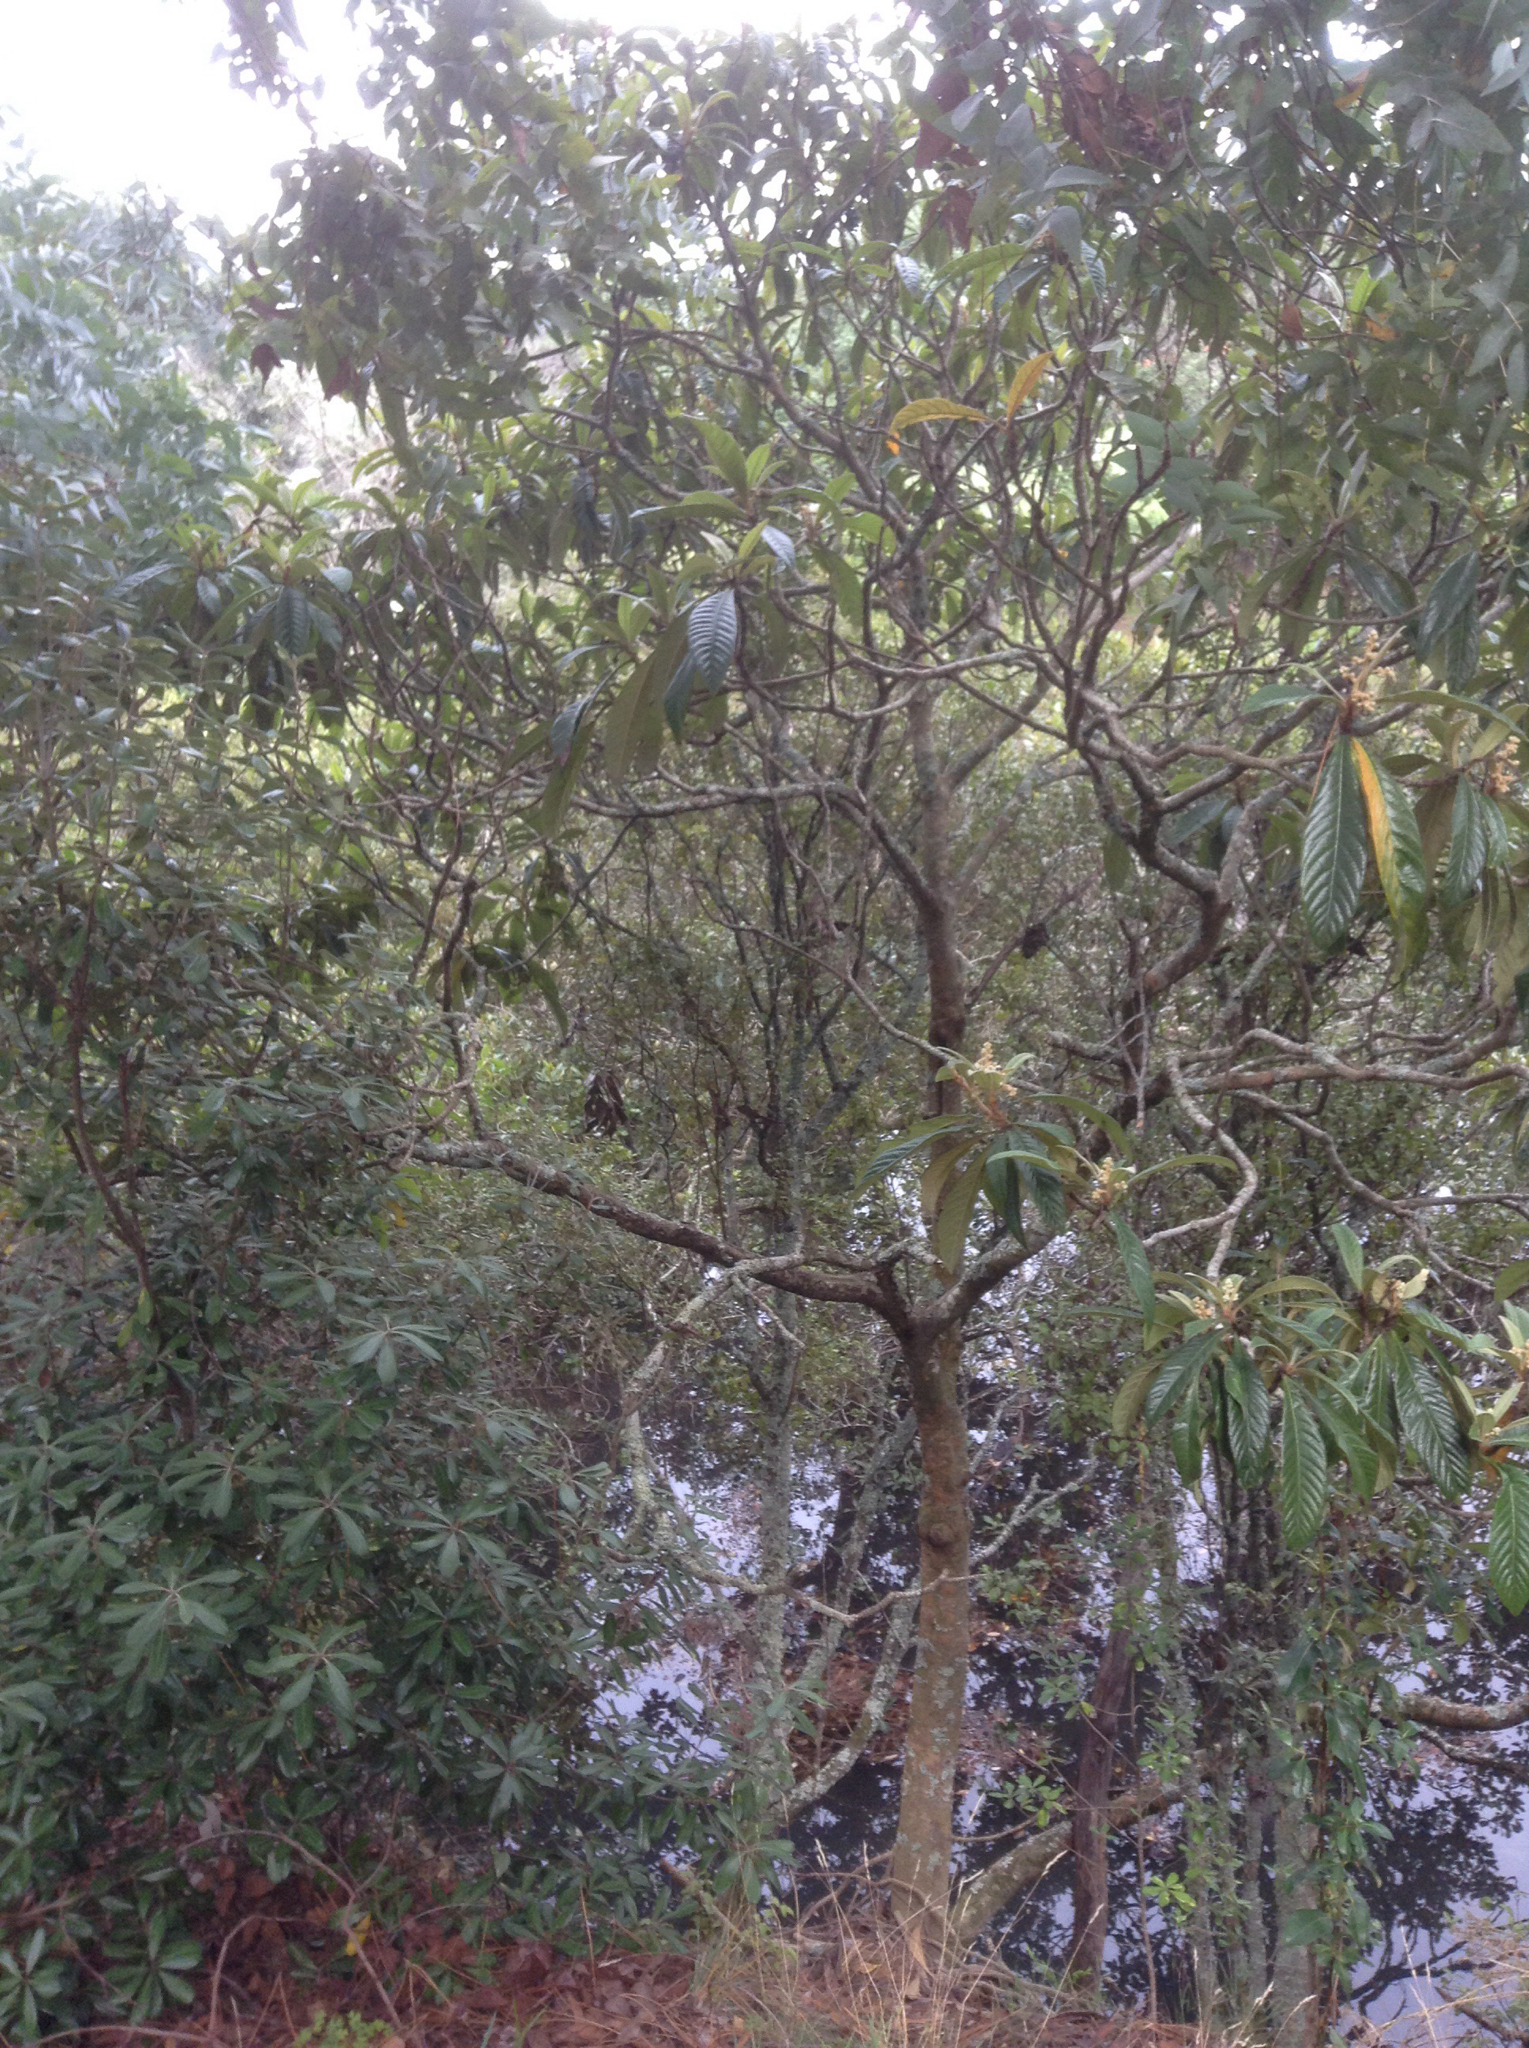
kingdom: Plantae
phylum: Tracheophyta
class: Magnoliopsida
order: Rosales
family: Rosaceae
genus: Rhaphiolepis
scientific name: Rhaphiolepis bibas
